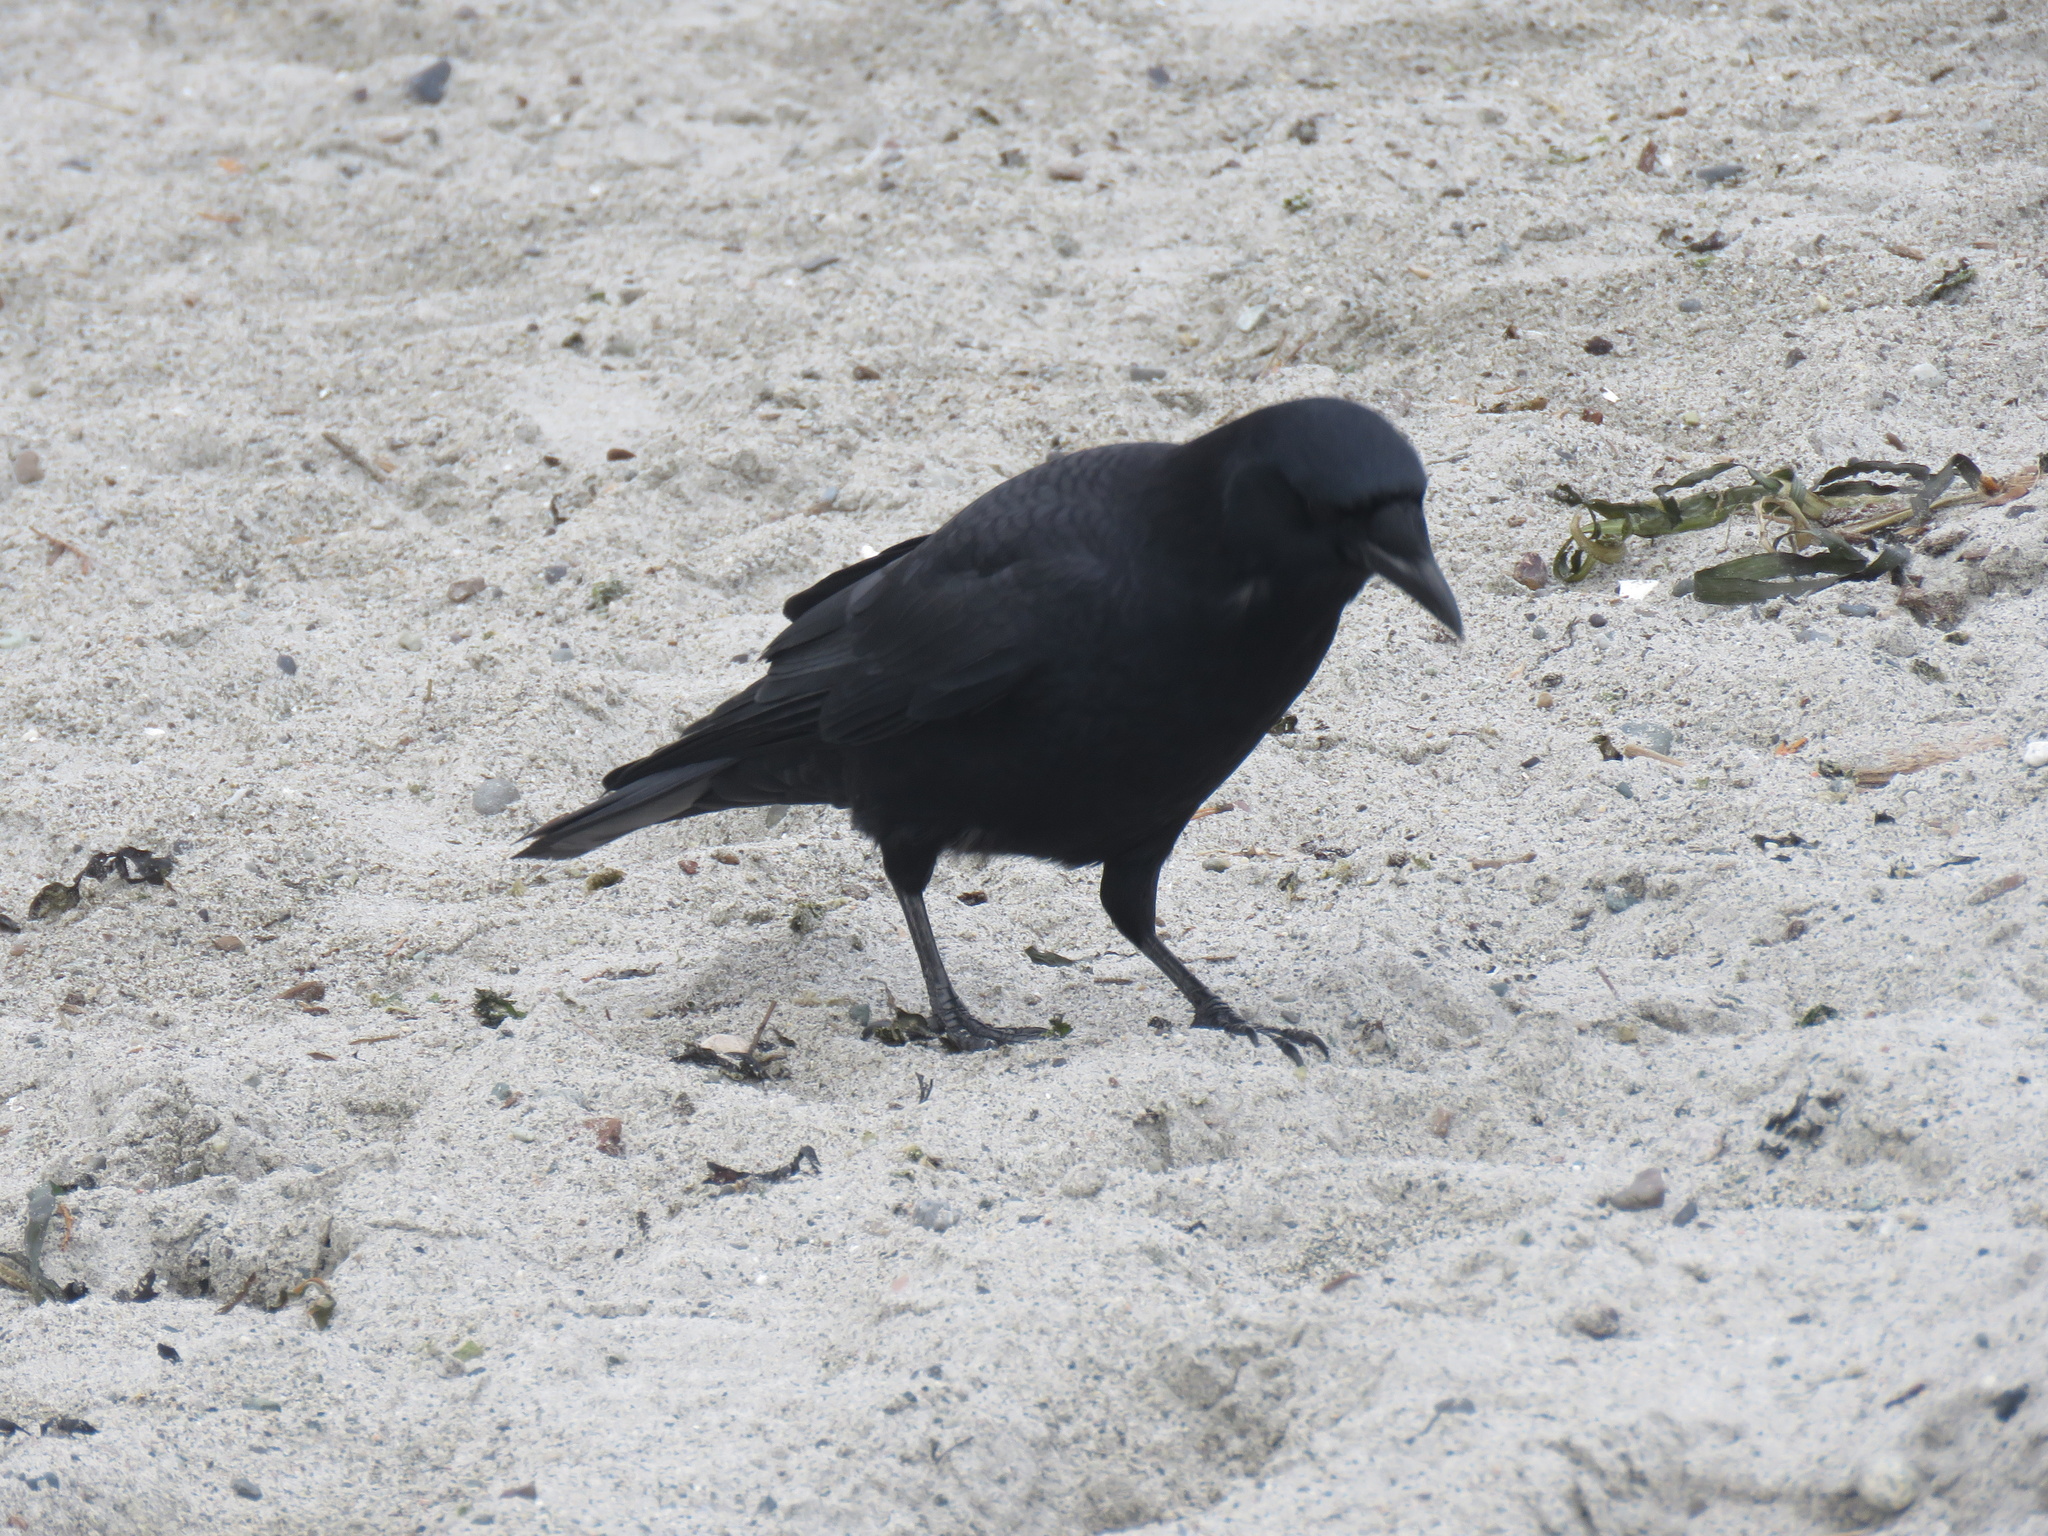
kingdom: Animalia
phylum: Chordata
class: Aves
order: Passeriformes
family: Corvidae
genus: Corvus
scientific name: Corvus brachyrhynchos
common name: American crow
